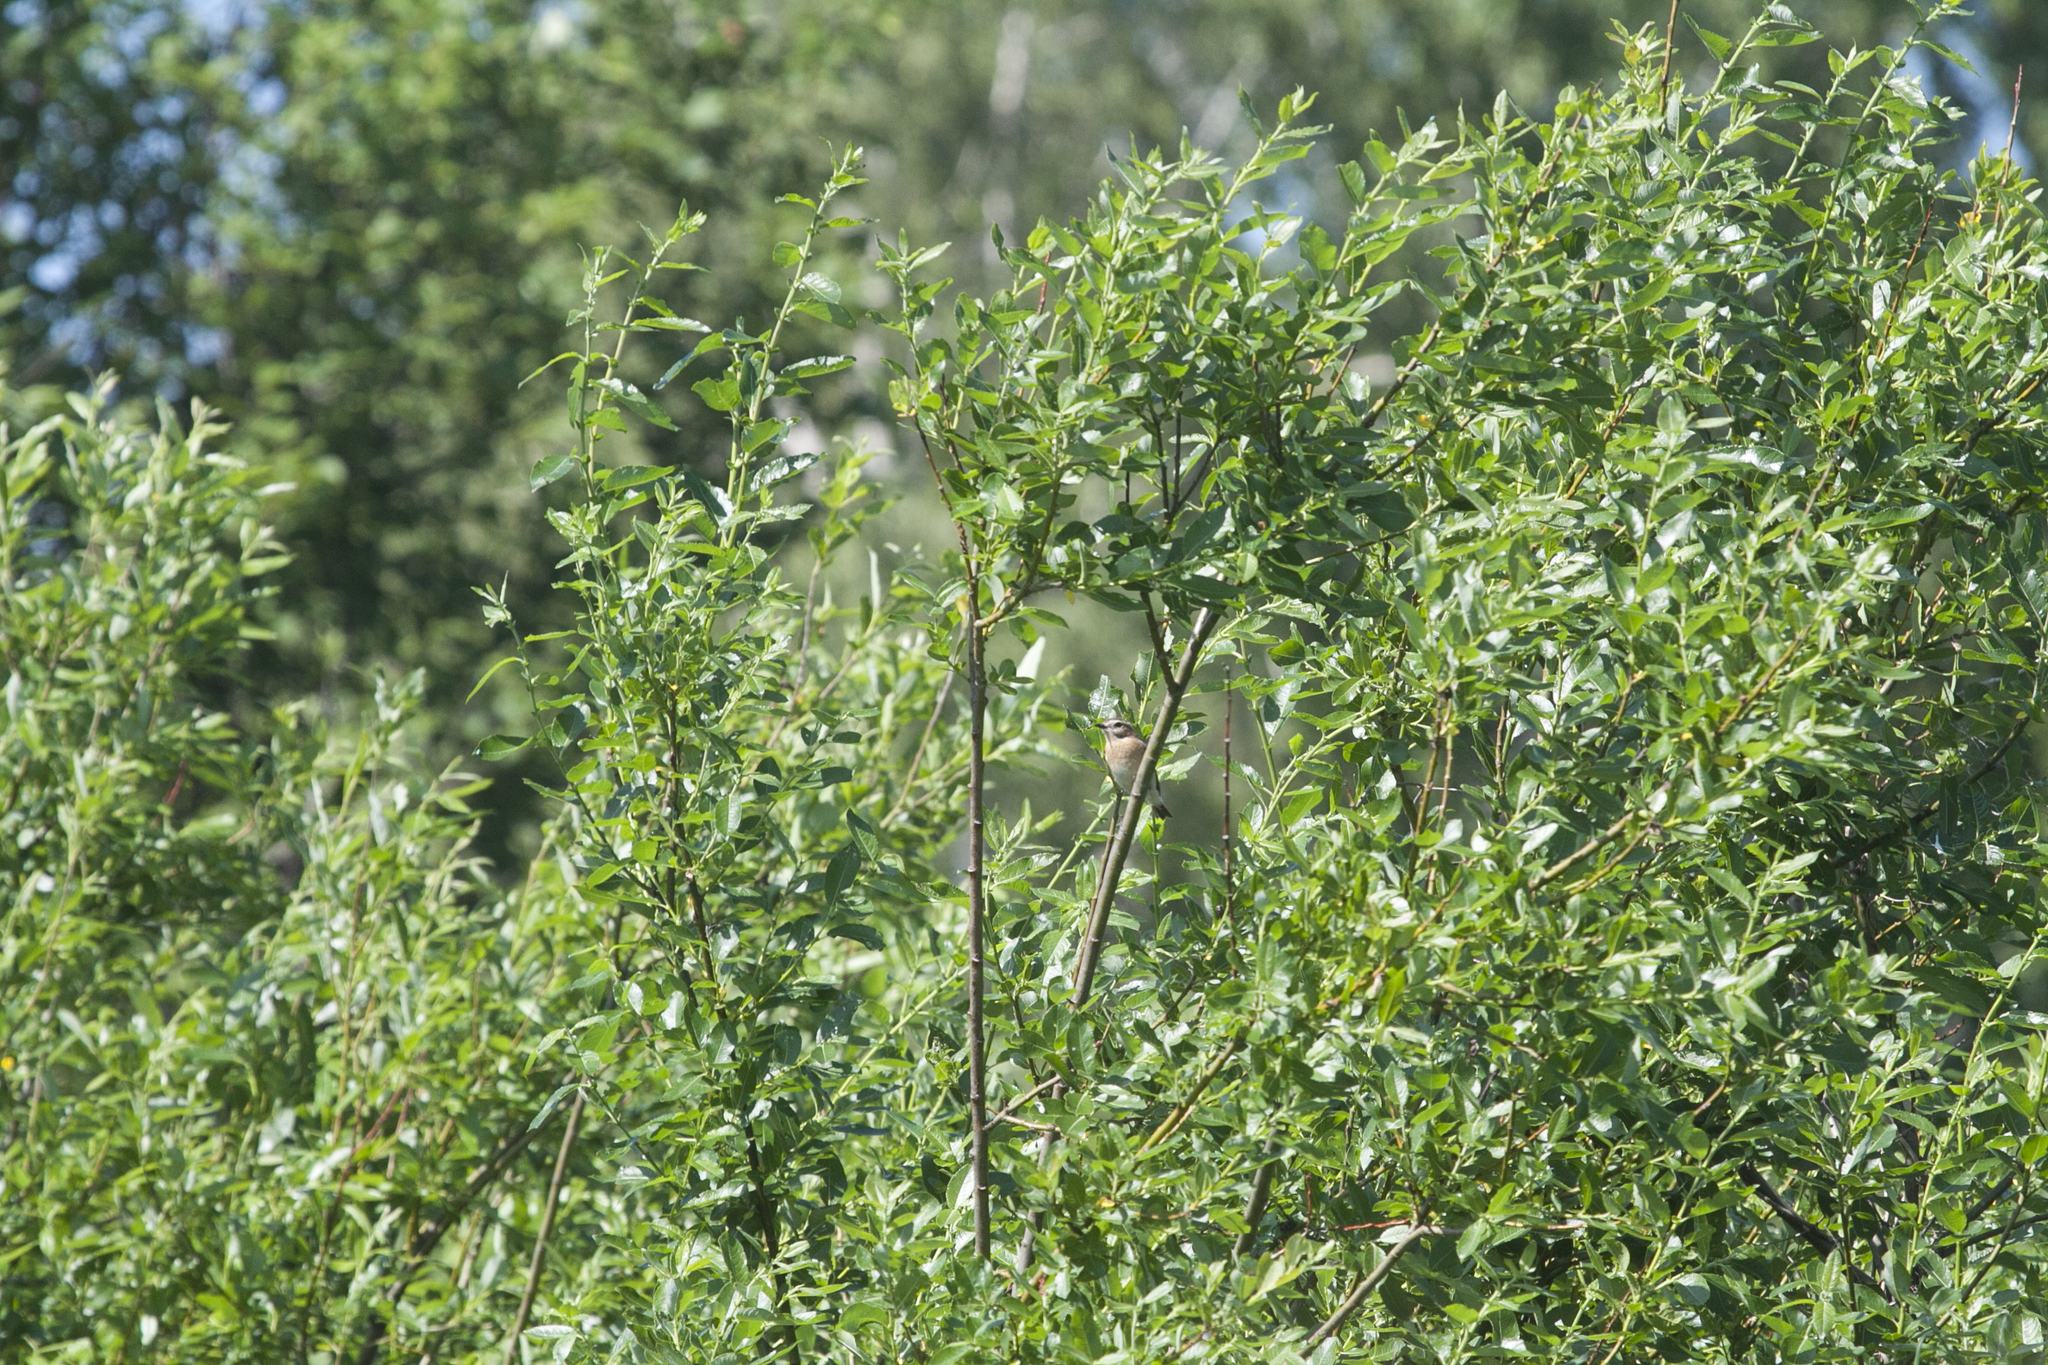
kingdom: Animalia
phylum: Chordata
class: Aves
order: Passeriformes
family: Muscicapidae
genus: Saxicola
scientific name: Saxicola rubetra
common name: Whinchat
